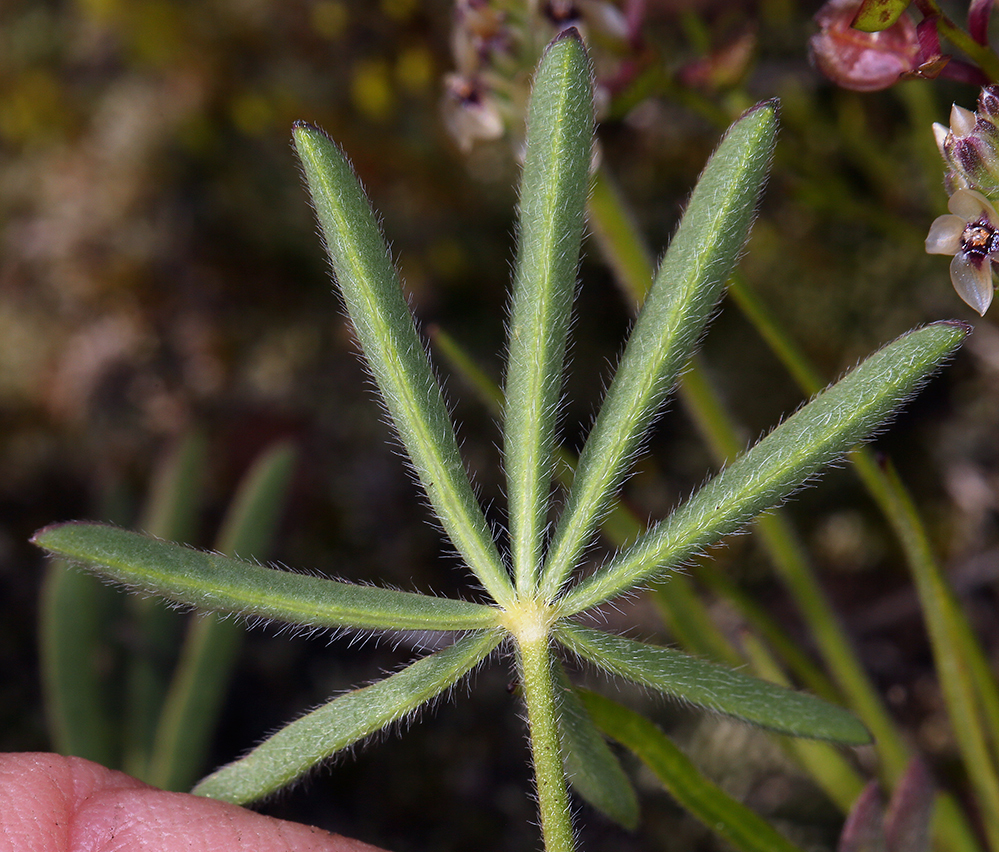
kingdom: Plantae
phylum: Tracheophyta
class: Magnoliopsida
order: Fabales
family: Fabaceae
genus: Lupinus
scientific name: Lupinus nanus
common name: Orean blue lupin
